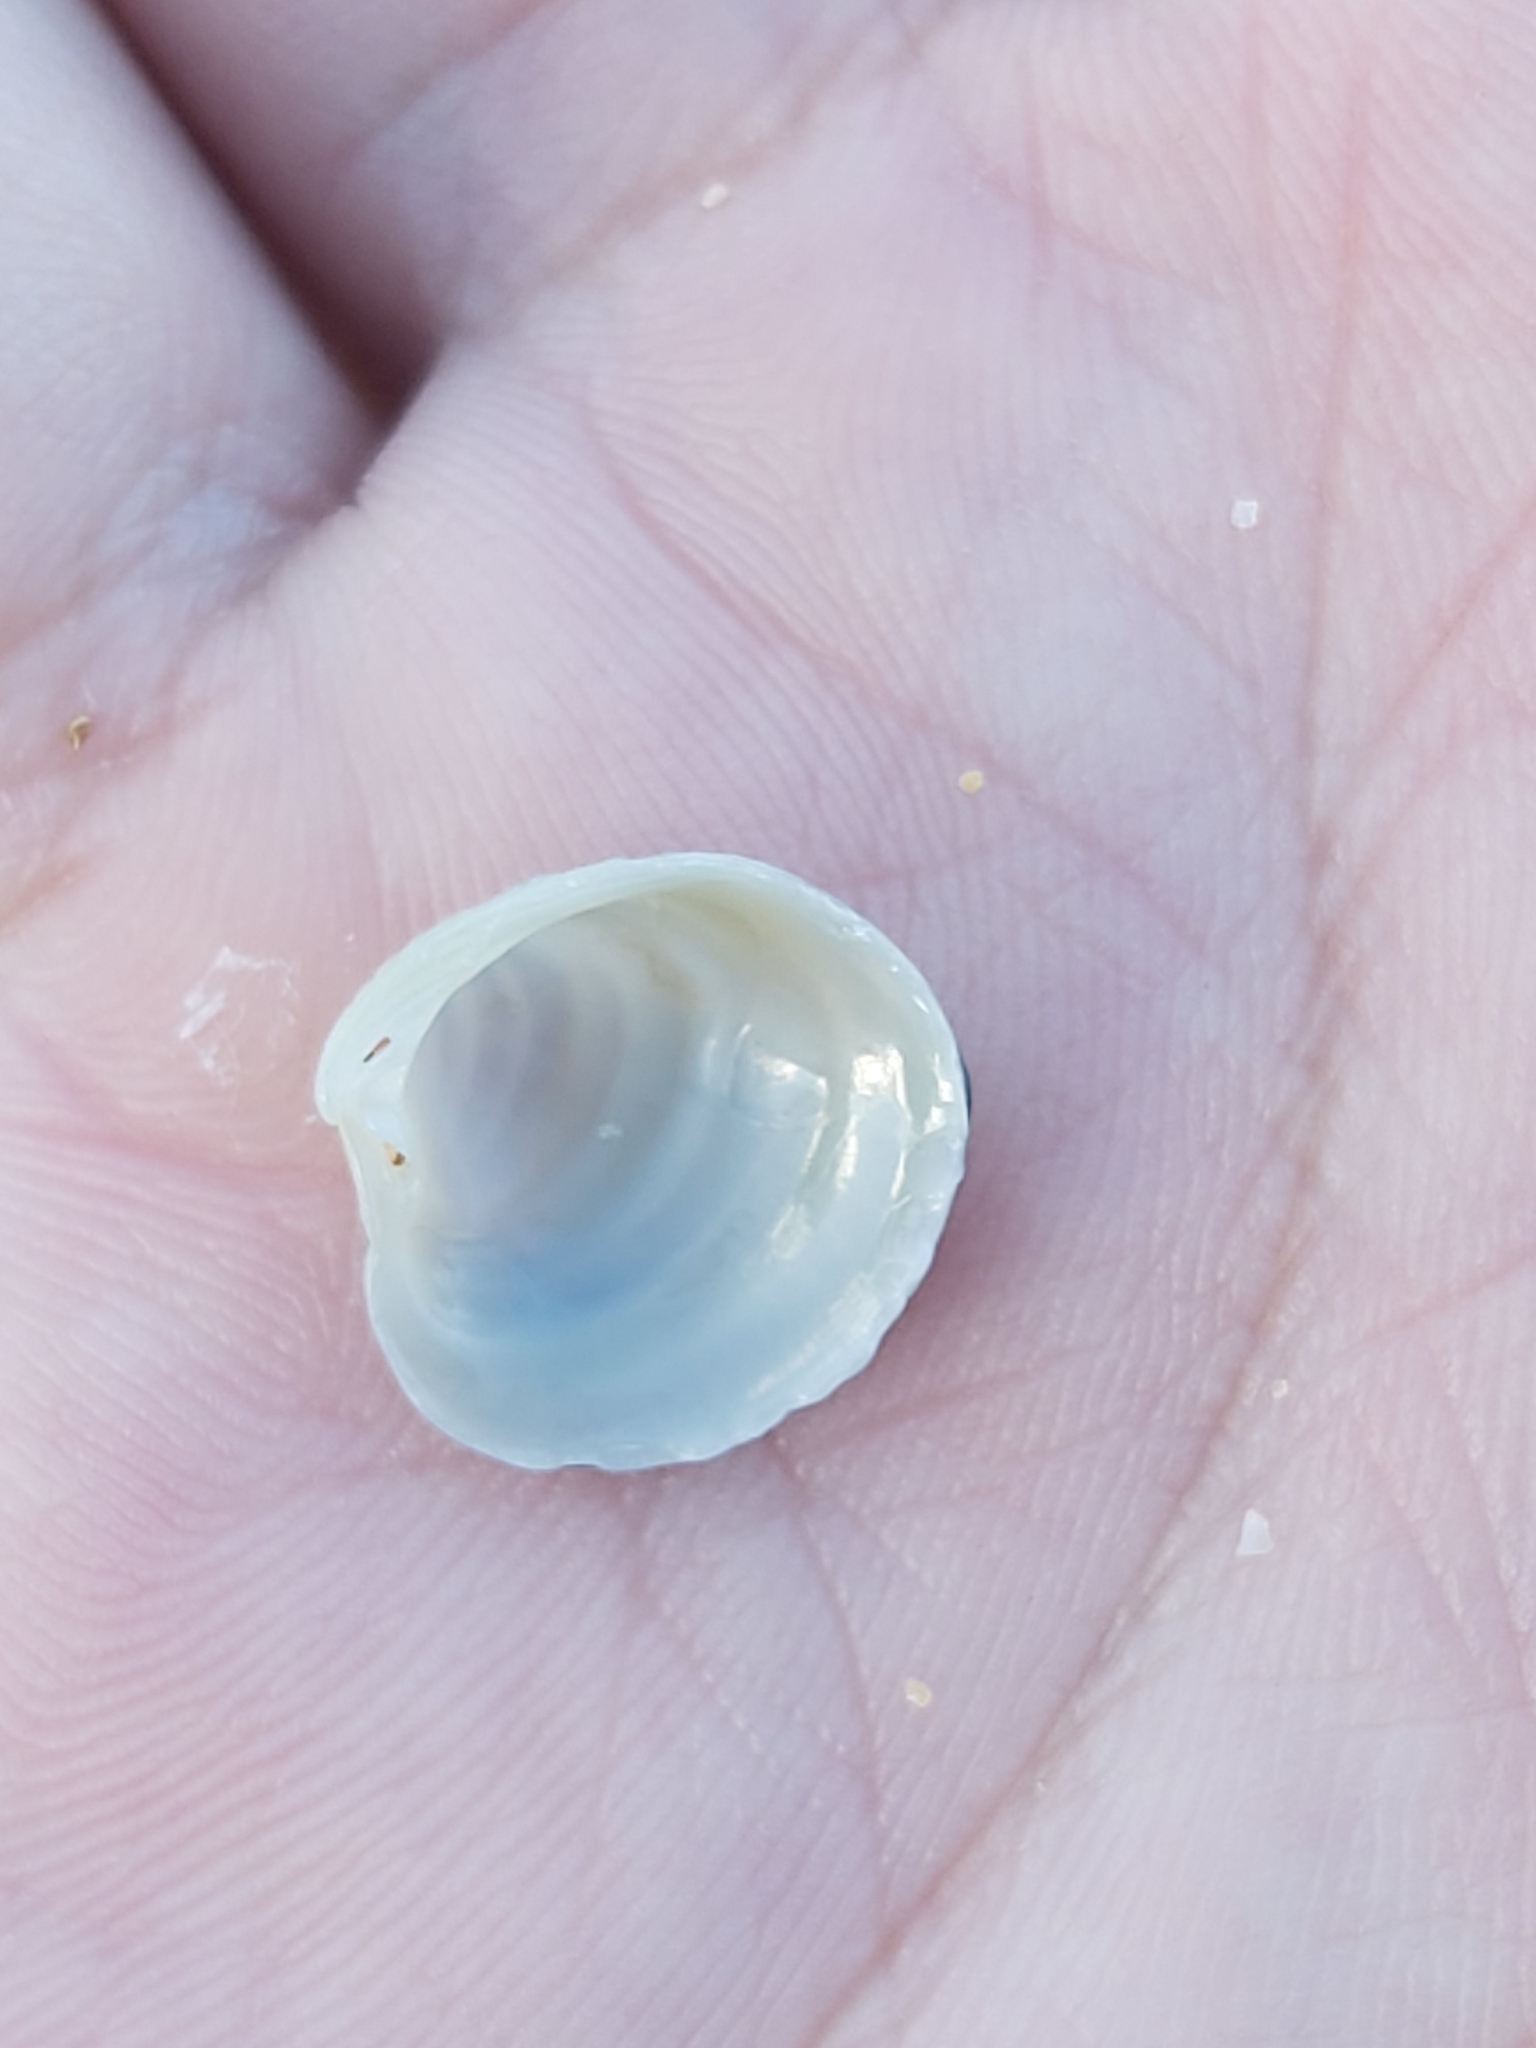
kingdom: Animalia
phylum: Mollusca
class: Bivalvia
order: Venerida
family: Veneridae
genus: Placamen
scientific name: Placamen placidum
